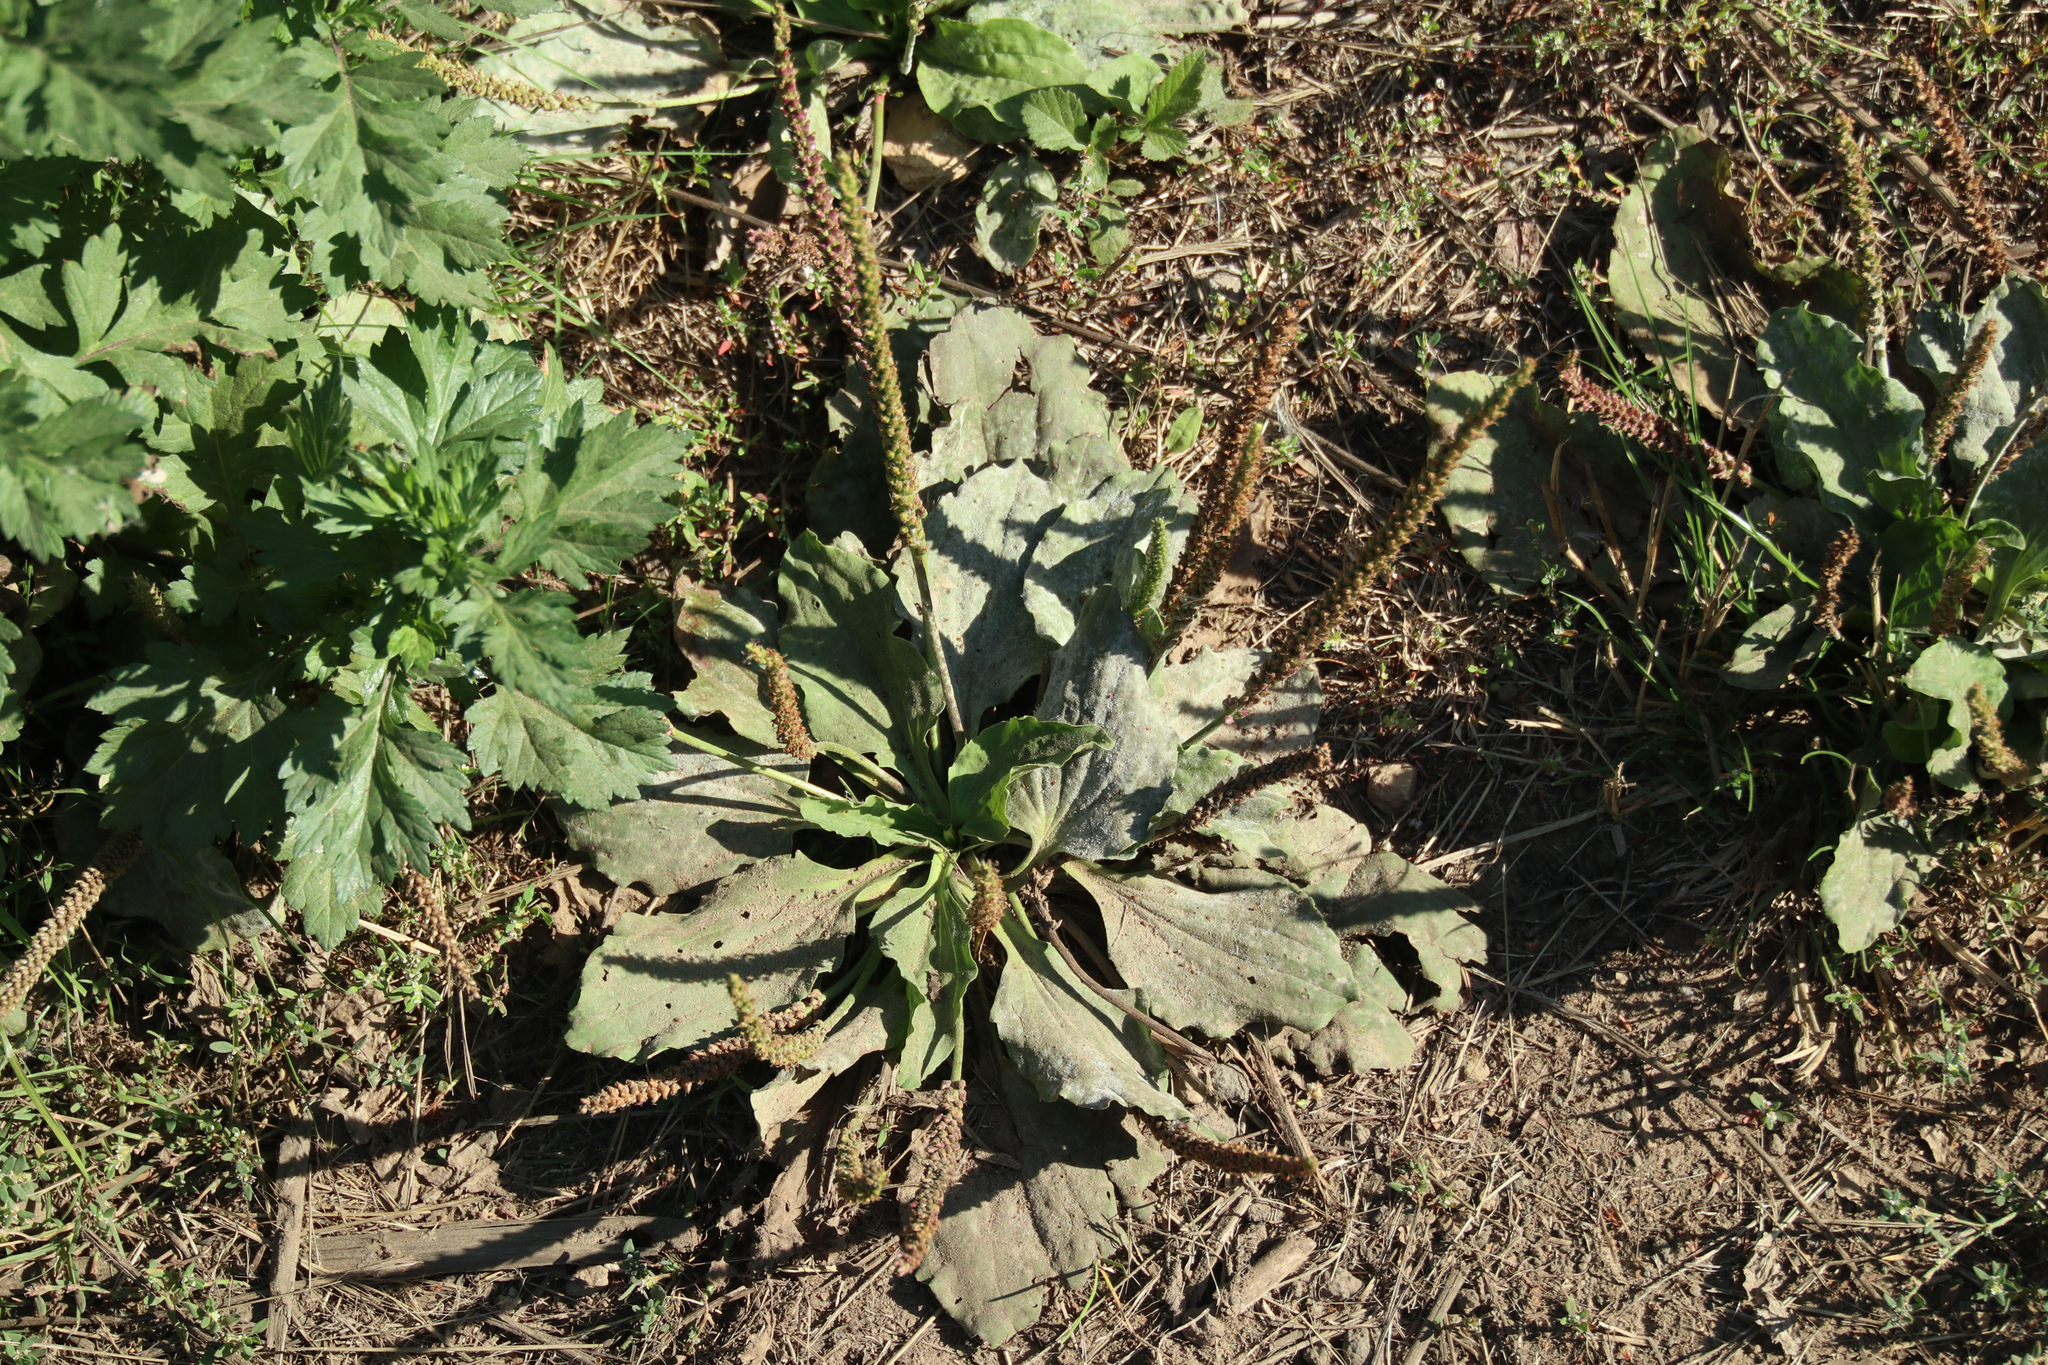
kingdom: Plantae
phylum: Tracheophyta
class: Magnoliopsida
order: Lamiales
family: Plantaginaceae
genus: Plantago
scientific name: Plantago major
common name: Common plantain
